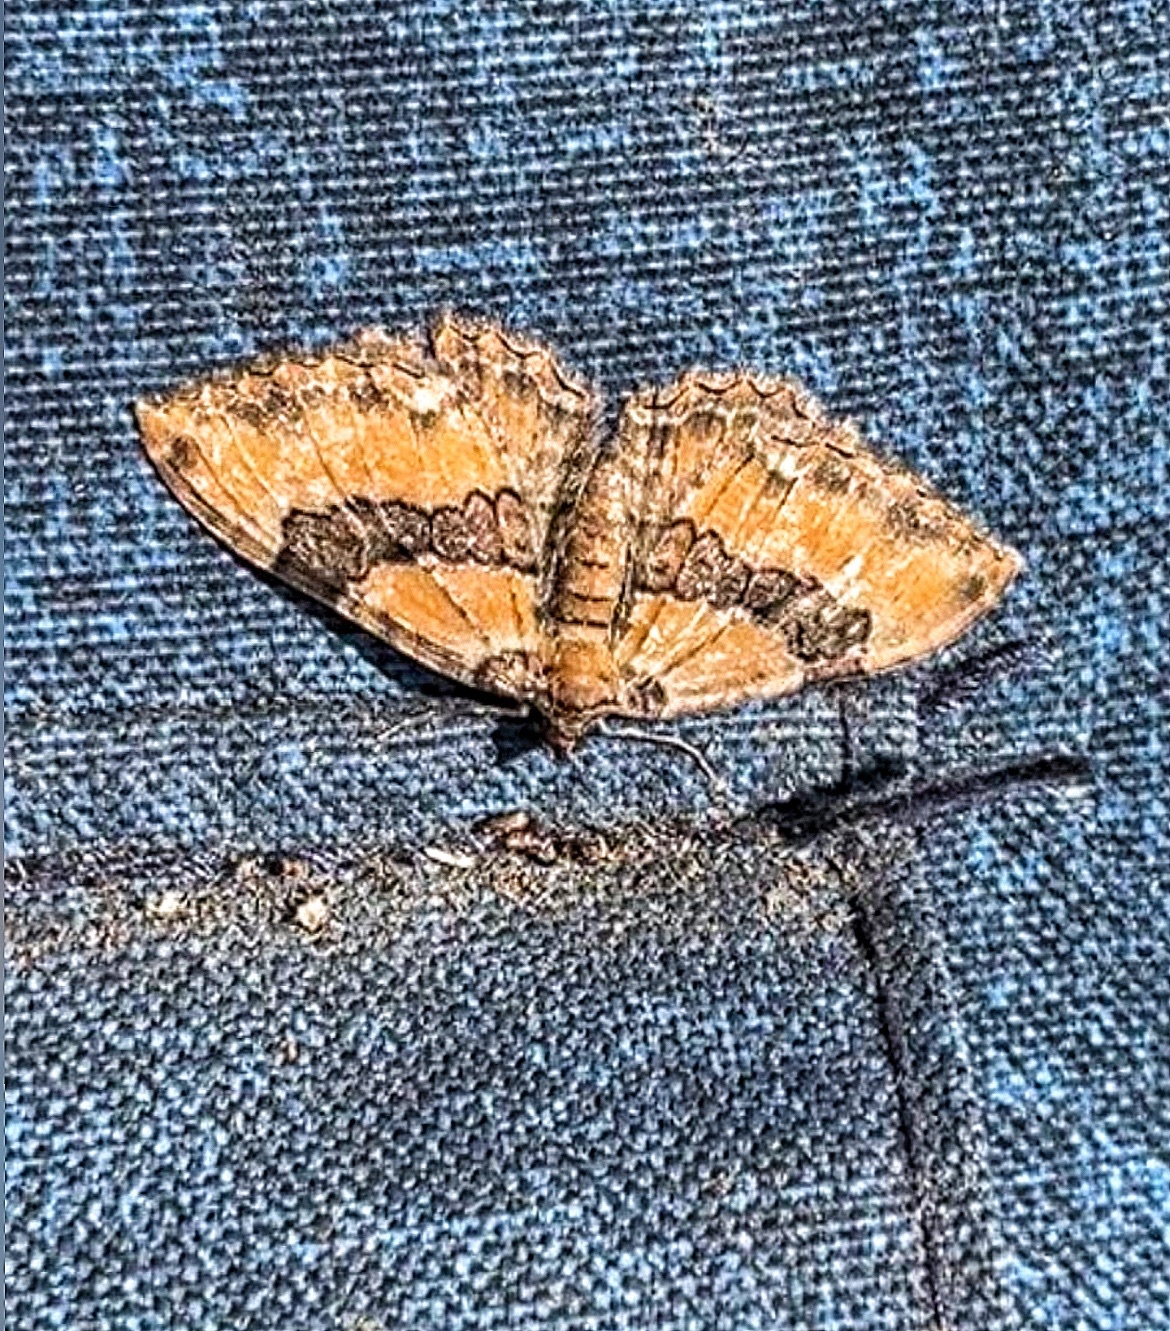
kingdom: Animalia
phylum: Arthropoda
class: Insecta
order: Lepidoptera
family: Geometridae
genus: Rheumaptera
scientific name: Rheumaptera
